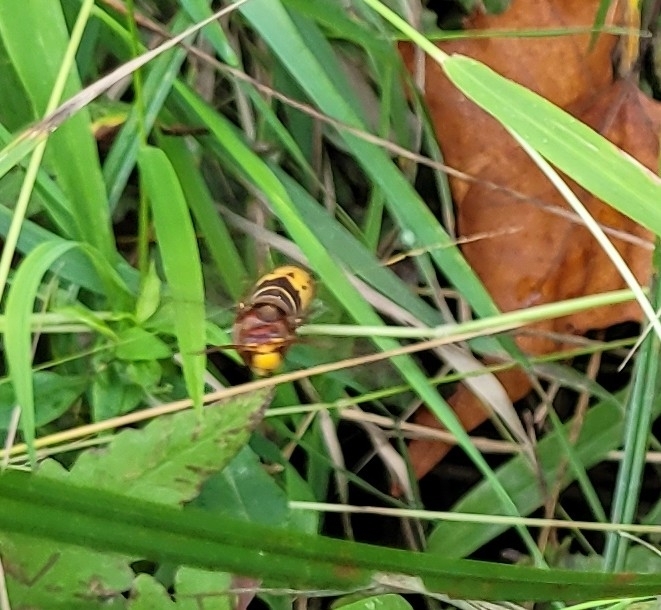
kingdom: Animalia
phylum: Arthropoda
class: Insecta
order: Hymenoptera
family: Vespidae
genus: Vespa
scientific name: Vespa crabro
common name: Hornet
